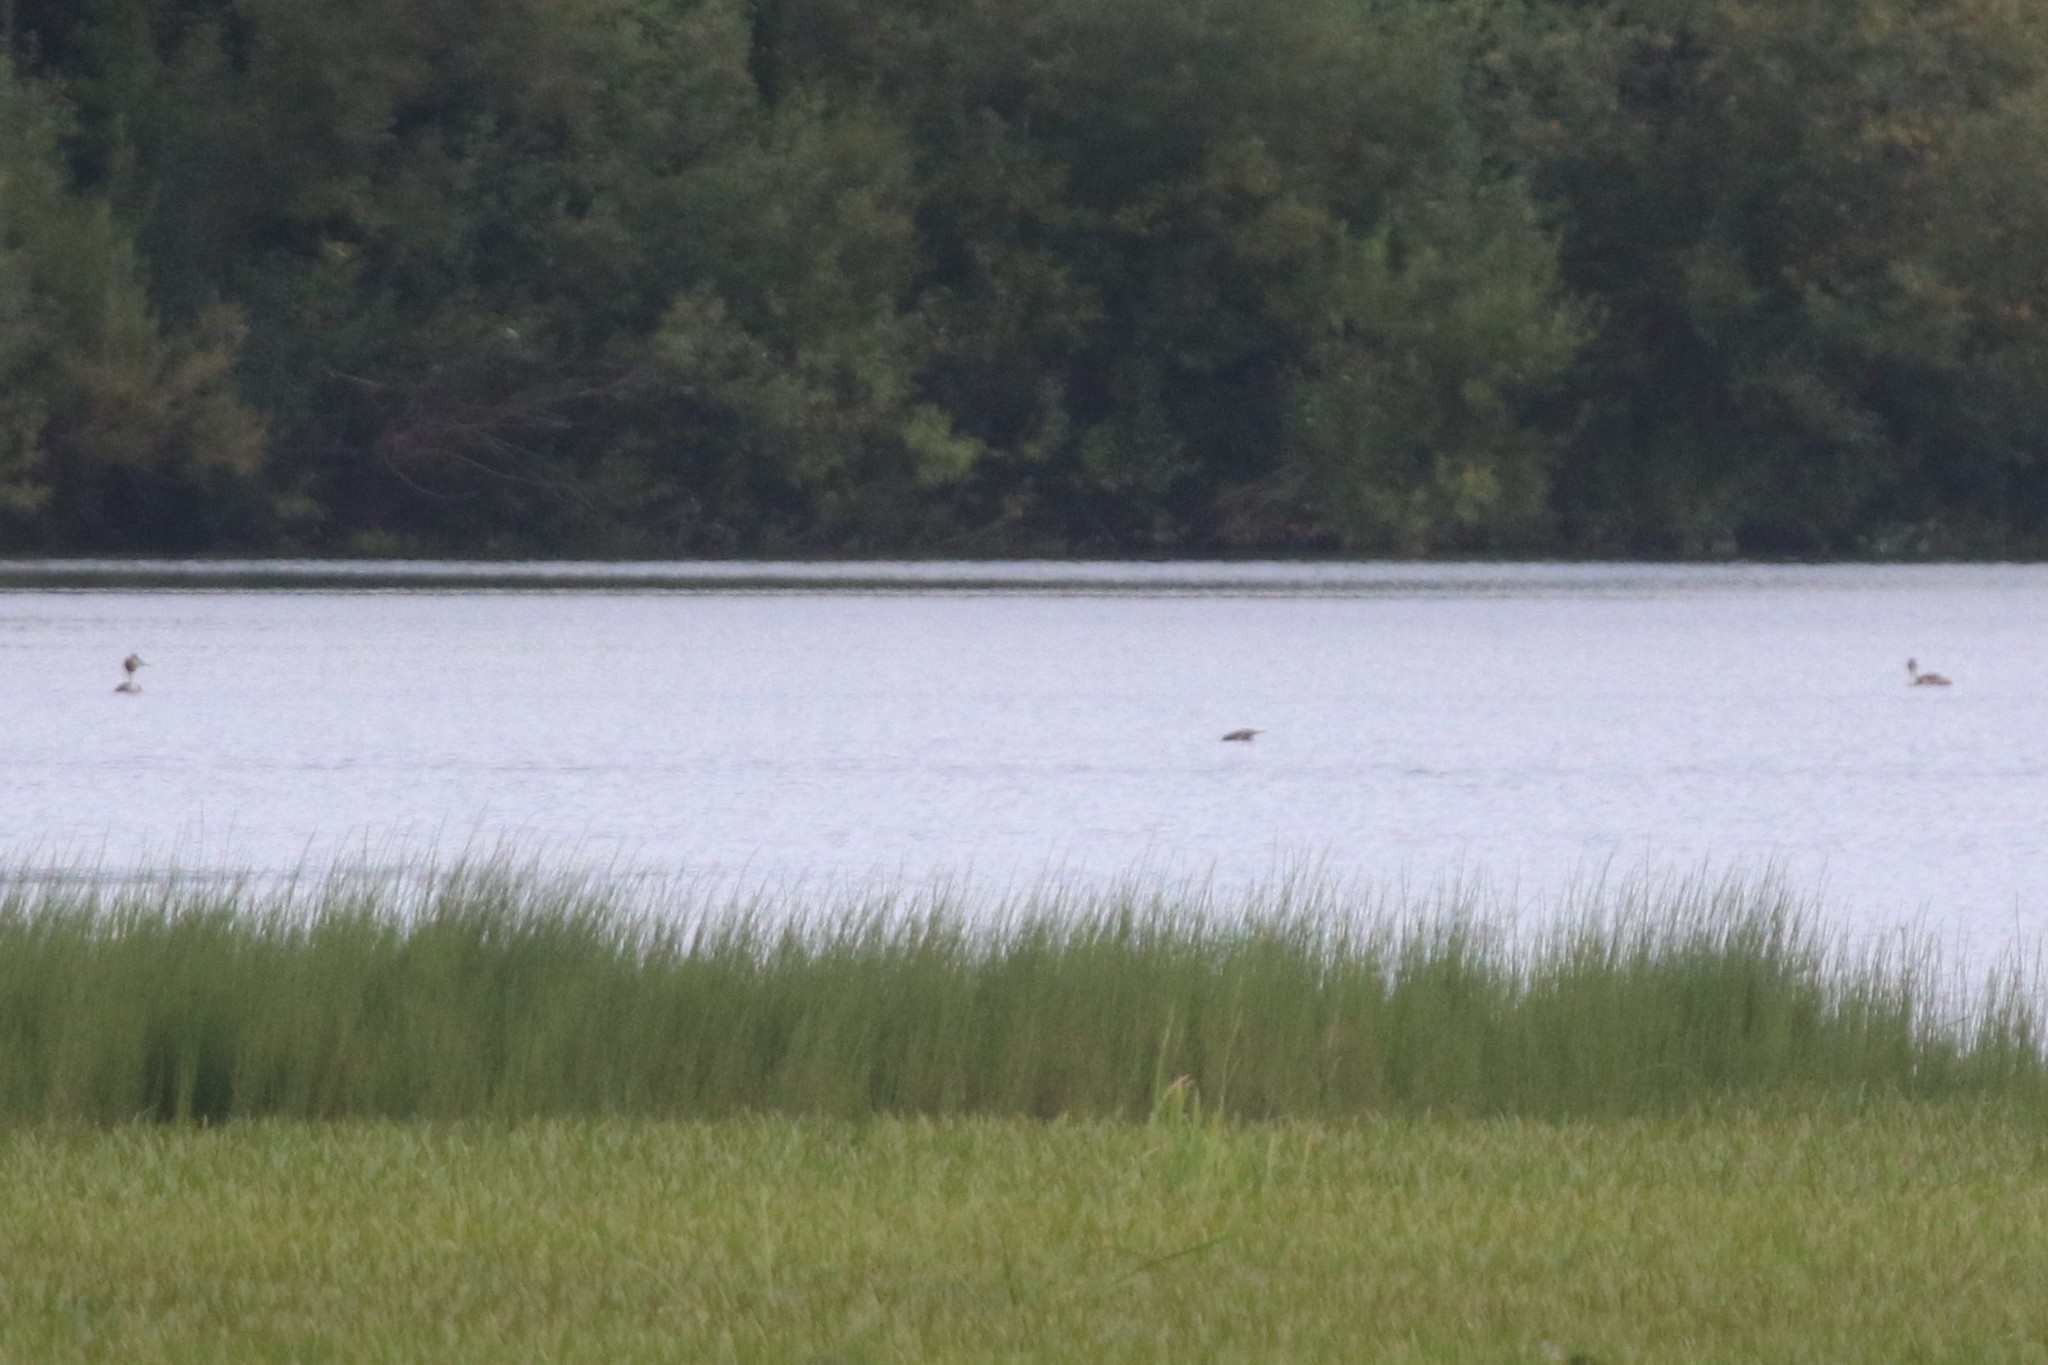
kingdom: Animalia
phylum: Chordata
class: Aves
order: Podicipediformes
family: Podicipedidae
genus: Podiceps
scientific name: Podiceps cristatus
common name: Great crested grebe
